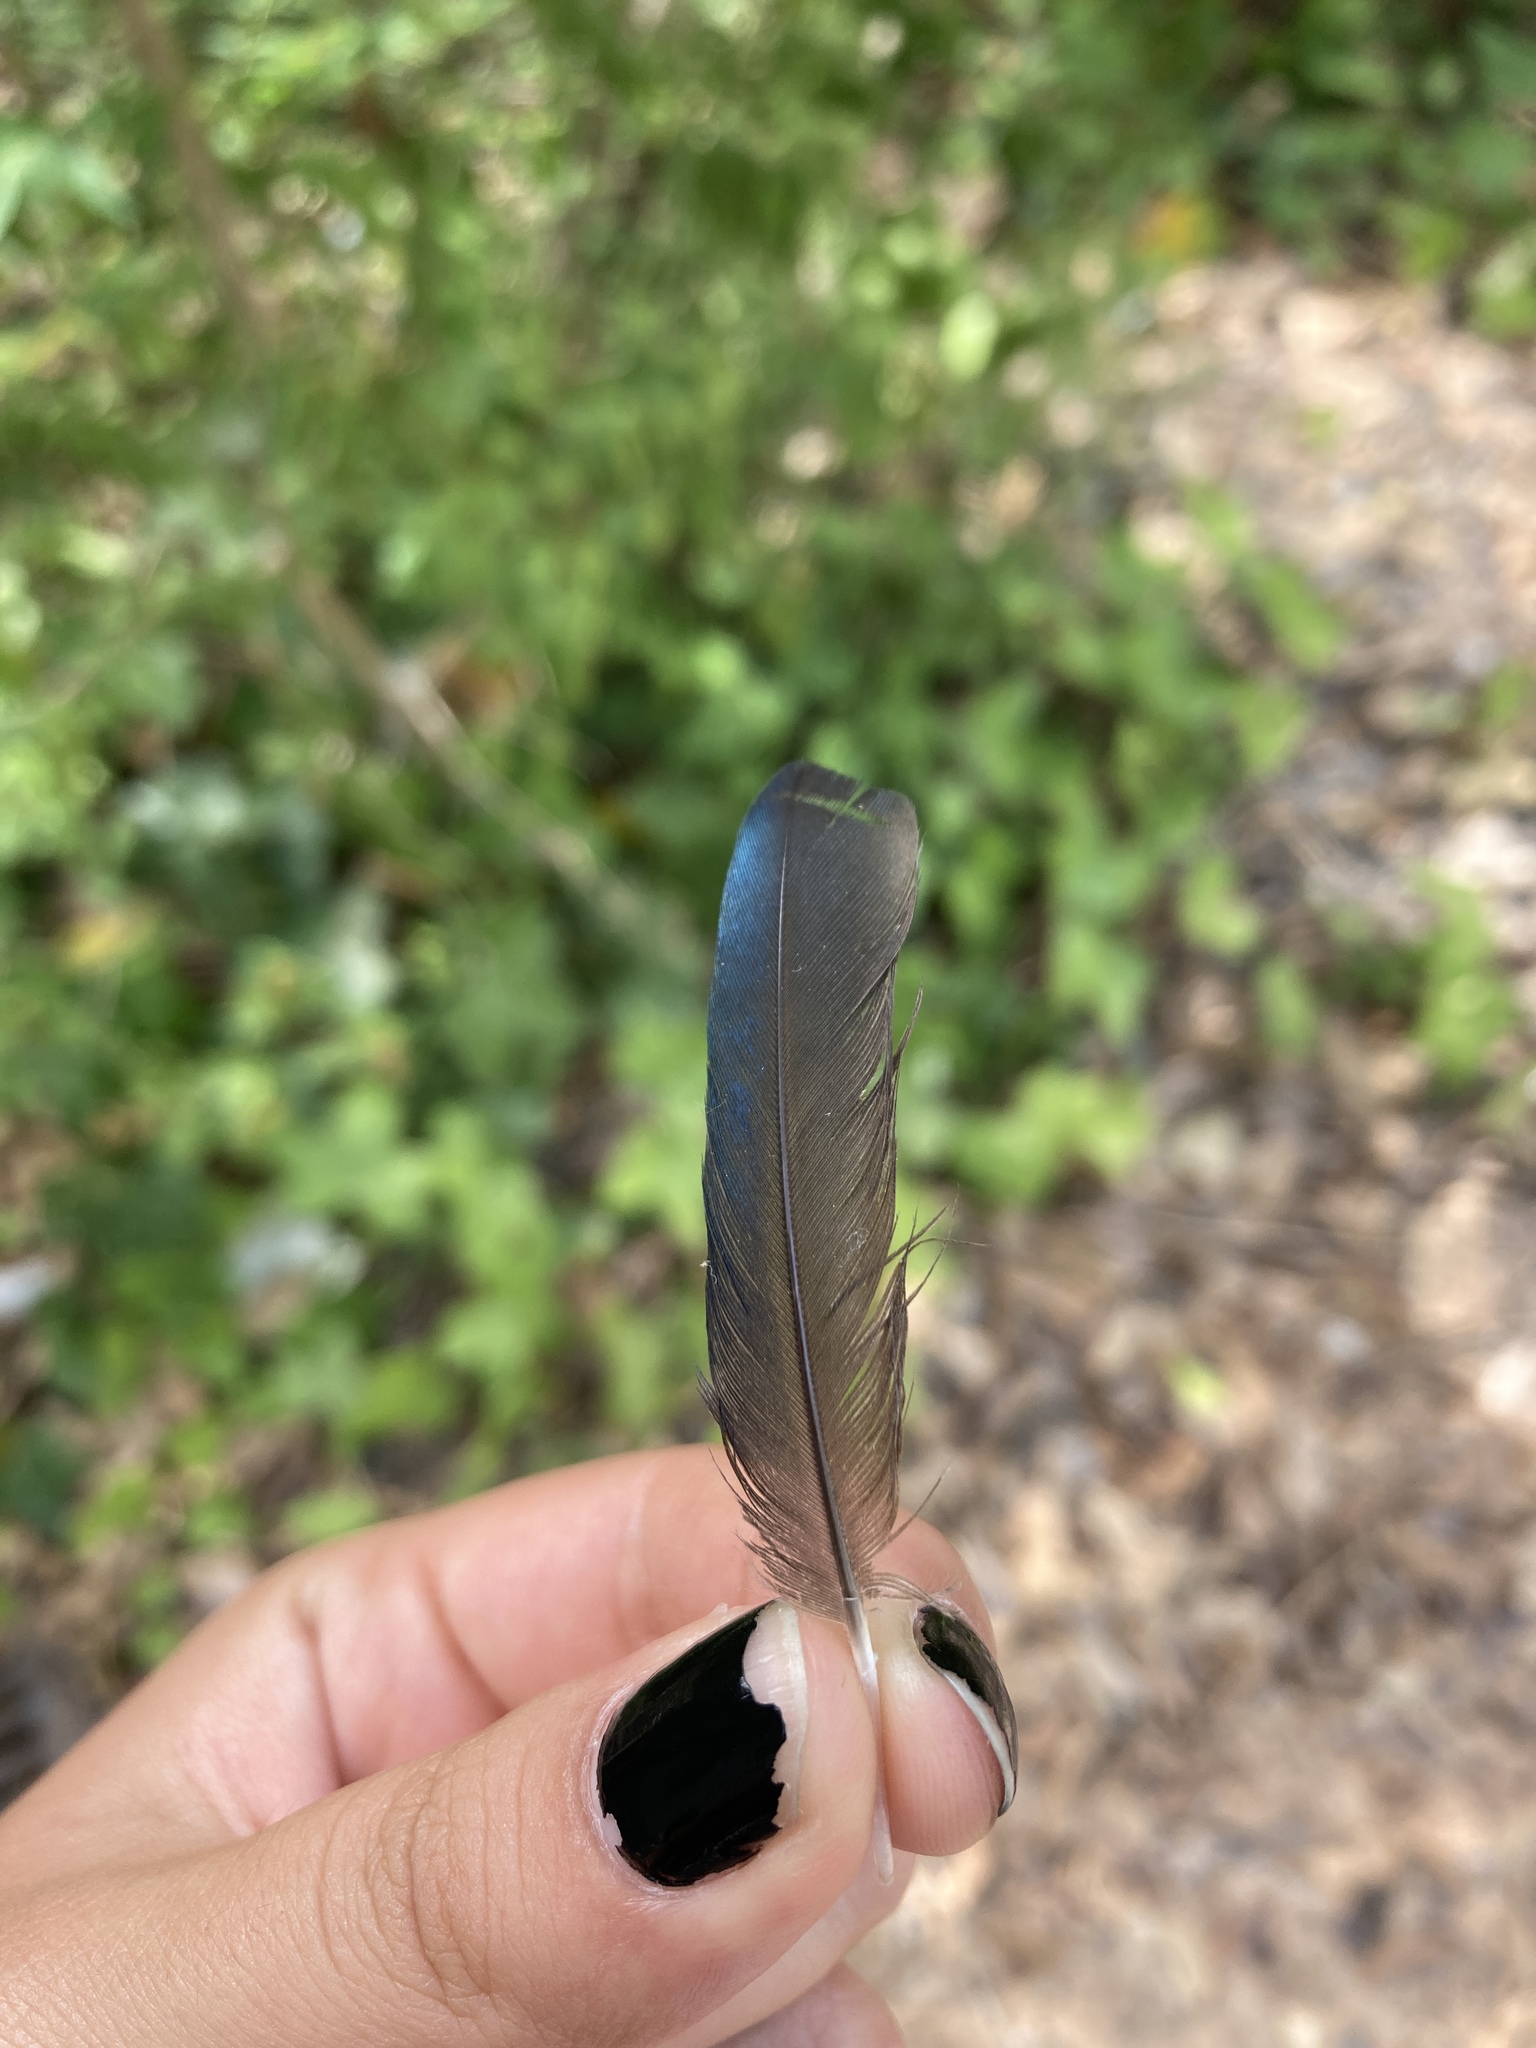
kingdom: Animalia
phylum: Chordata
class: Aves
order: Passeriformes
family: Corvidae
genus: Pica
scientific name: Pica pica
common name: Eurasian magpie
